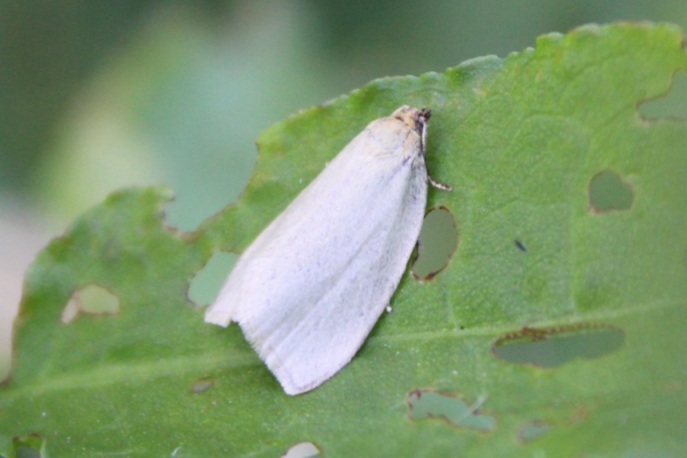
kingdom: Animalia
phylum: Arthropoda
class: Insecta
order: Lepidoptera
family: Tortricidae
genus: Aphelia
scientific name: Aphelia unitana
